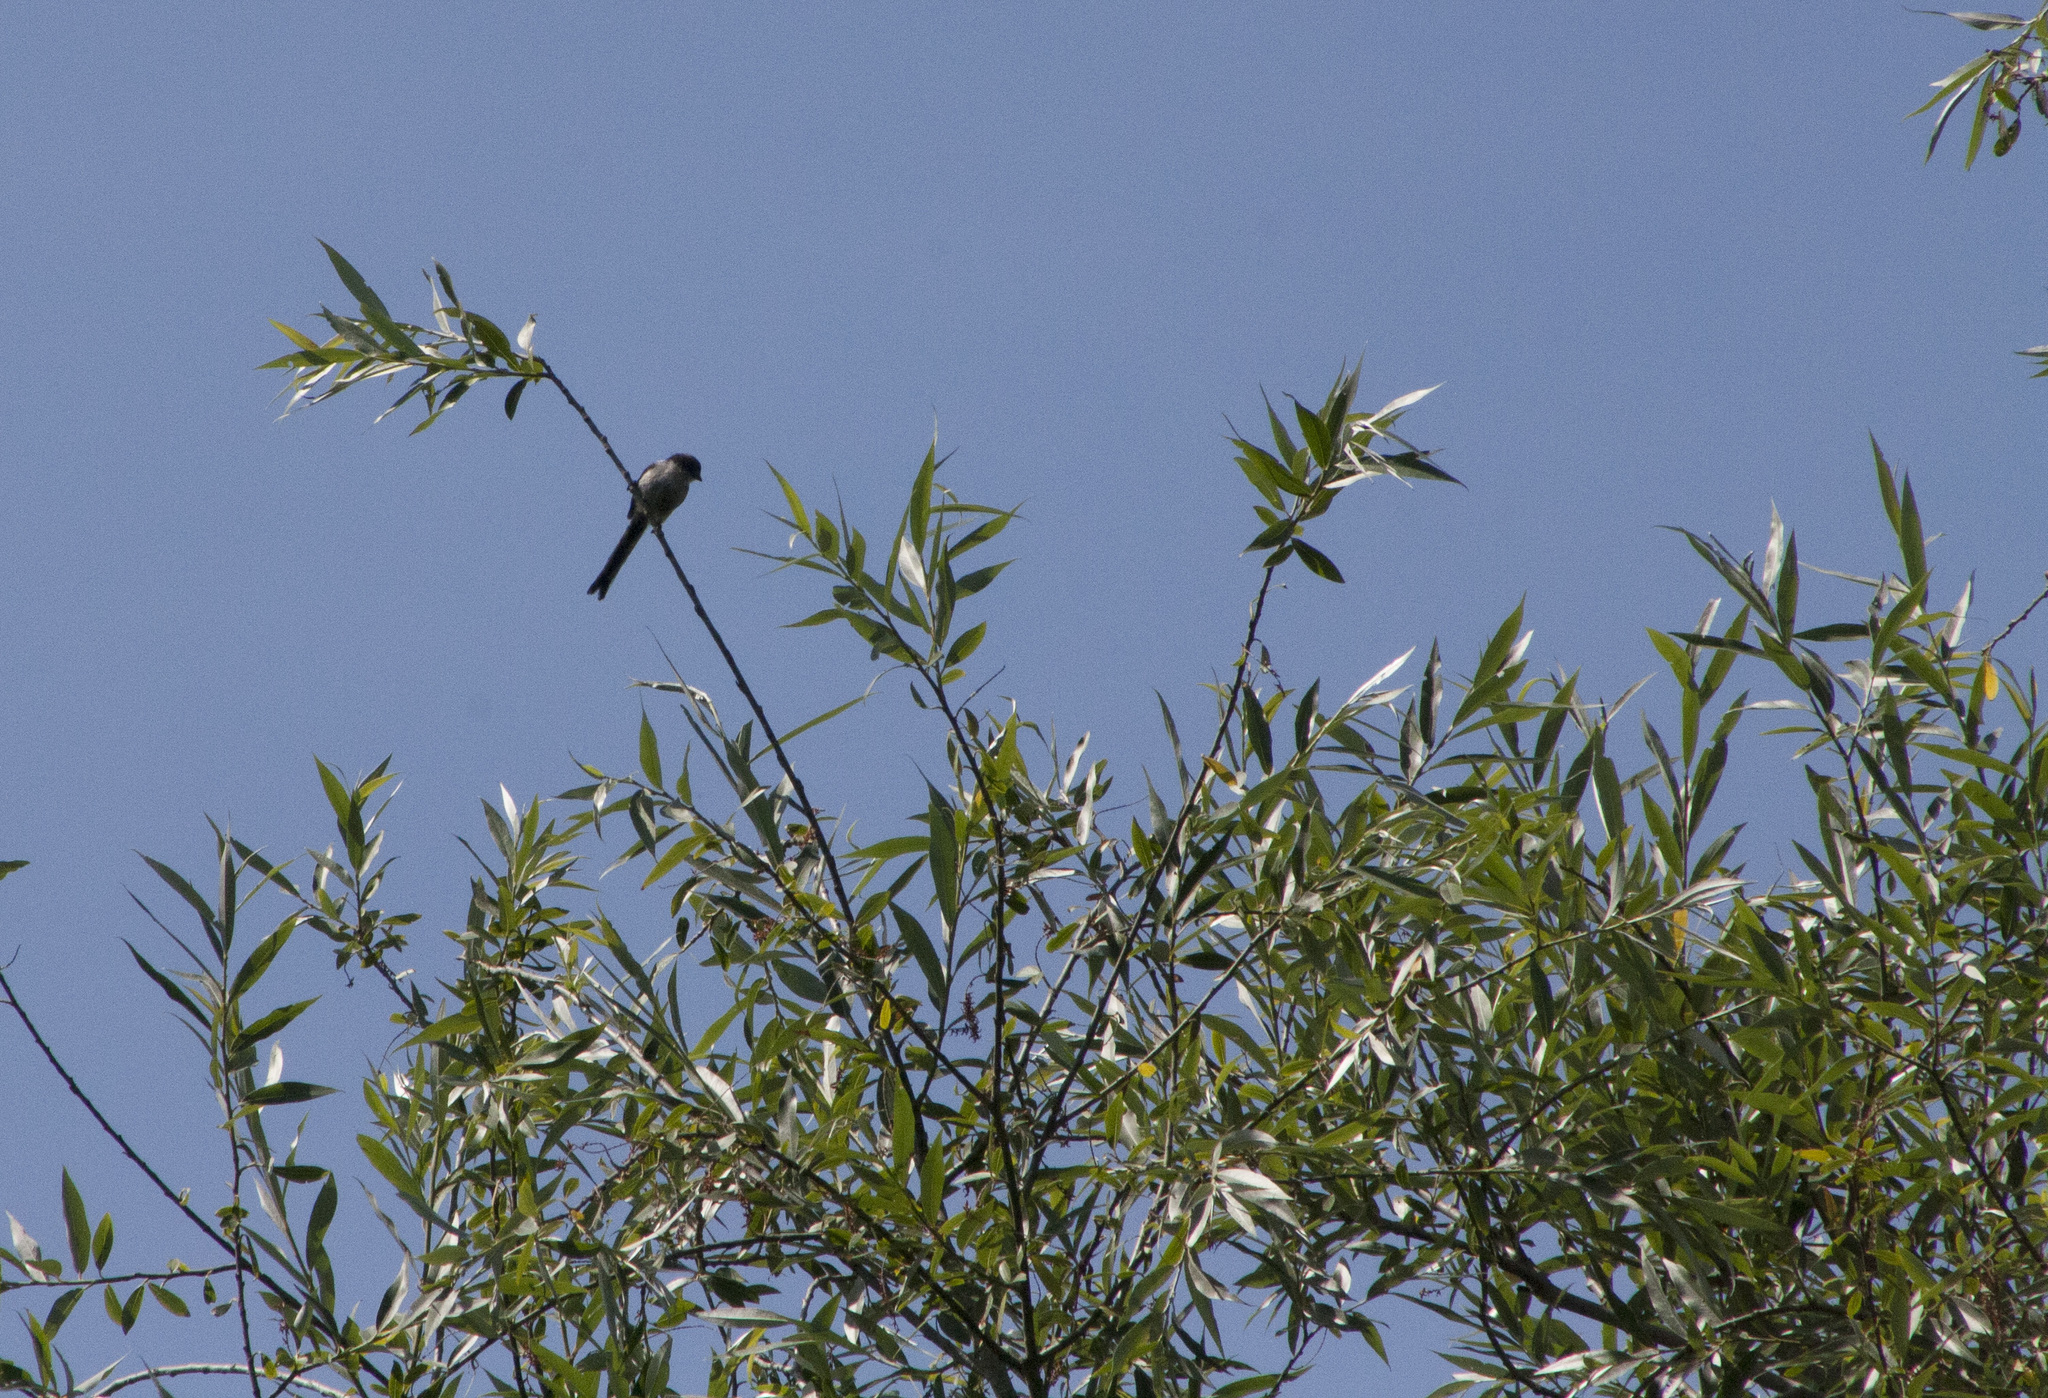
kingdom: Animalia
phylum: Chordata
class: Aves
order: Passeriformes
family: Aegithalidae
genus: Aegithalos
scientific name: Aegithalos caudatus
